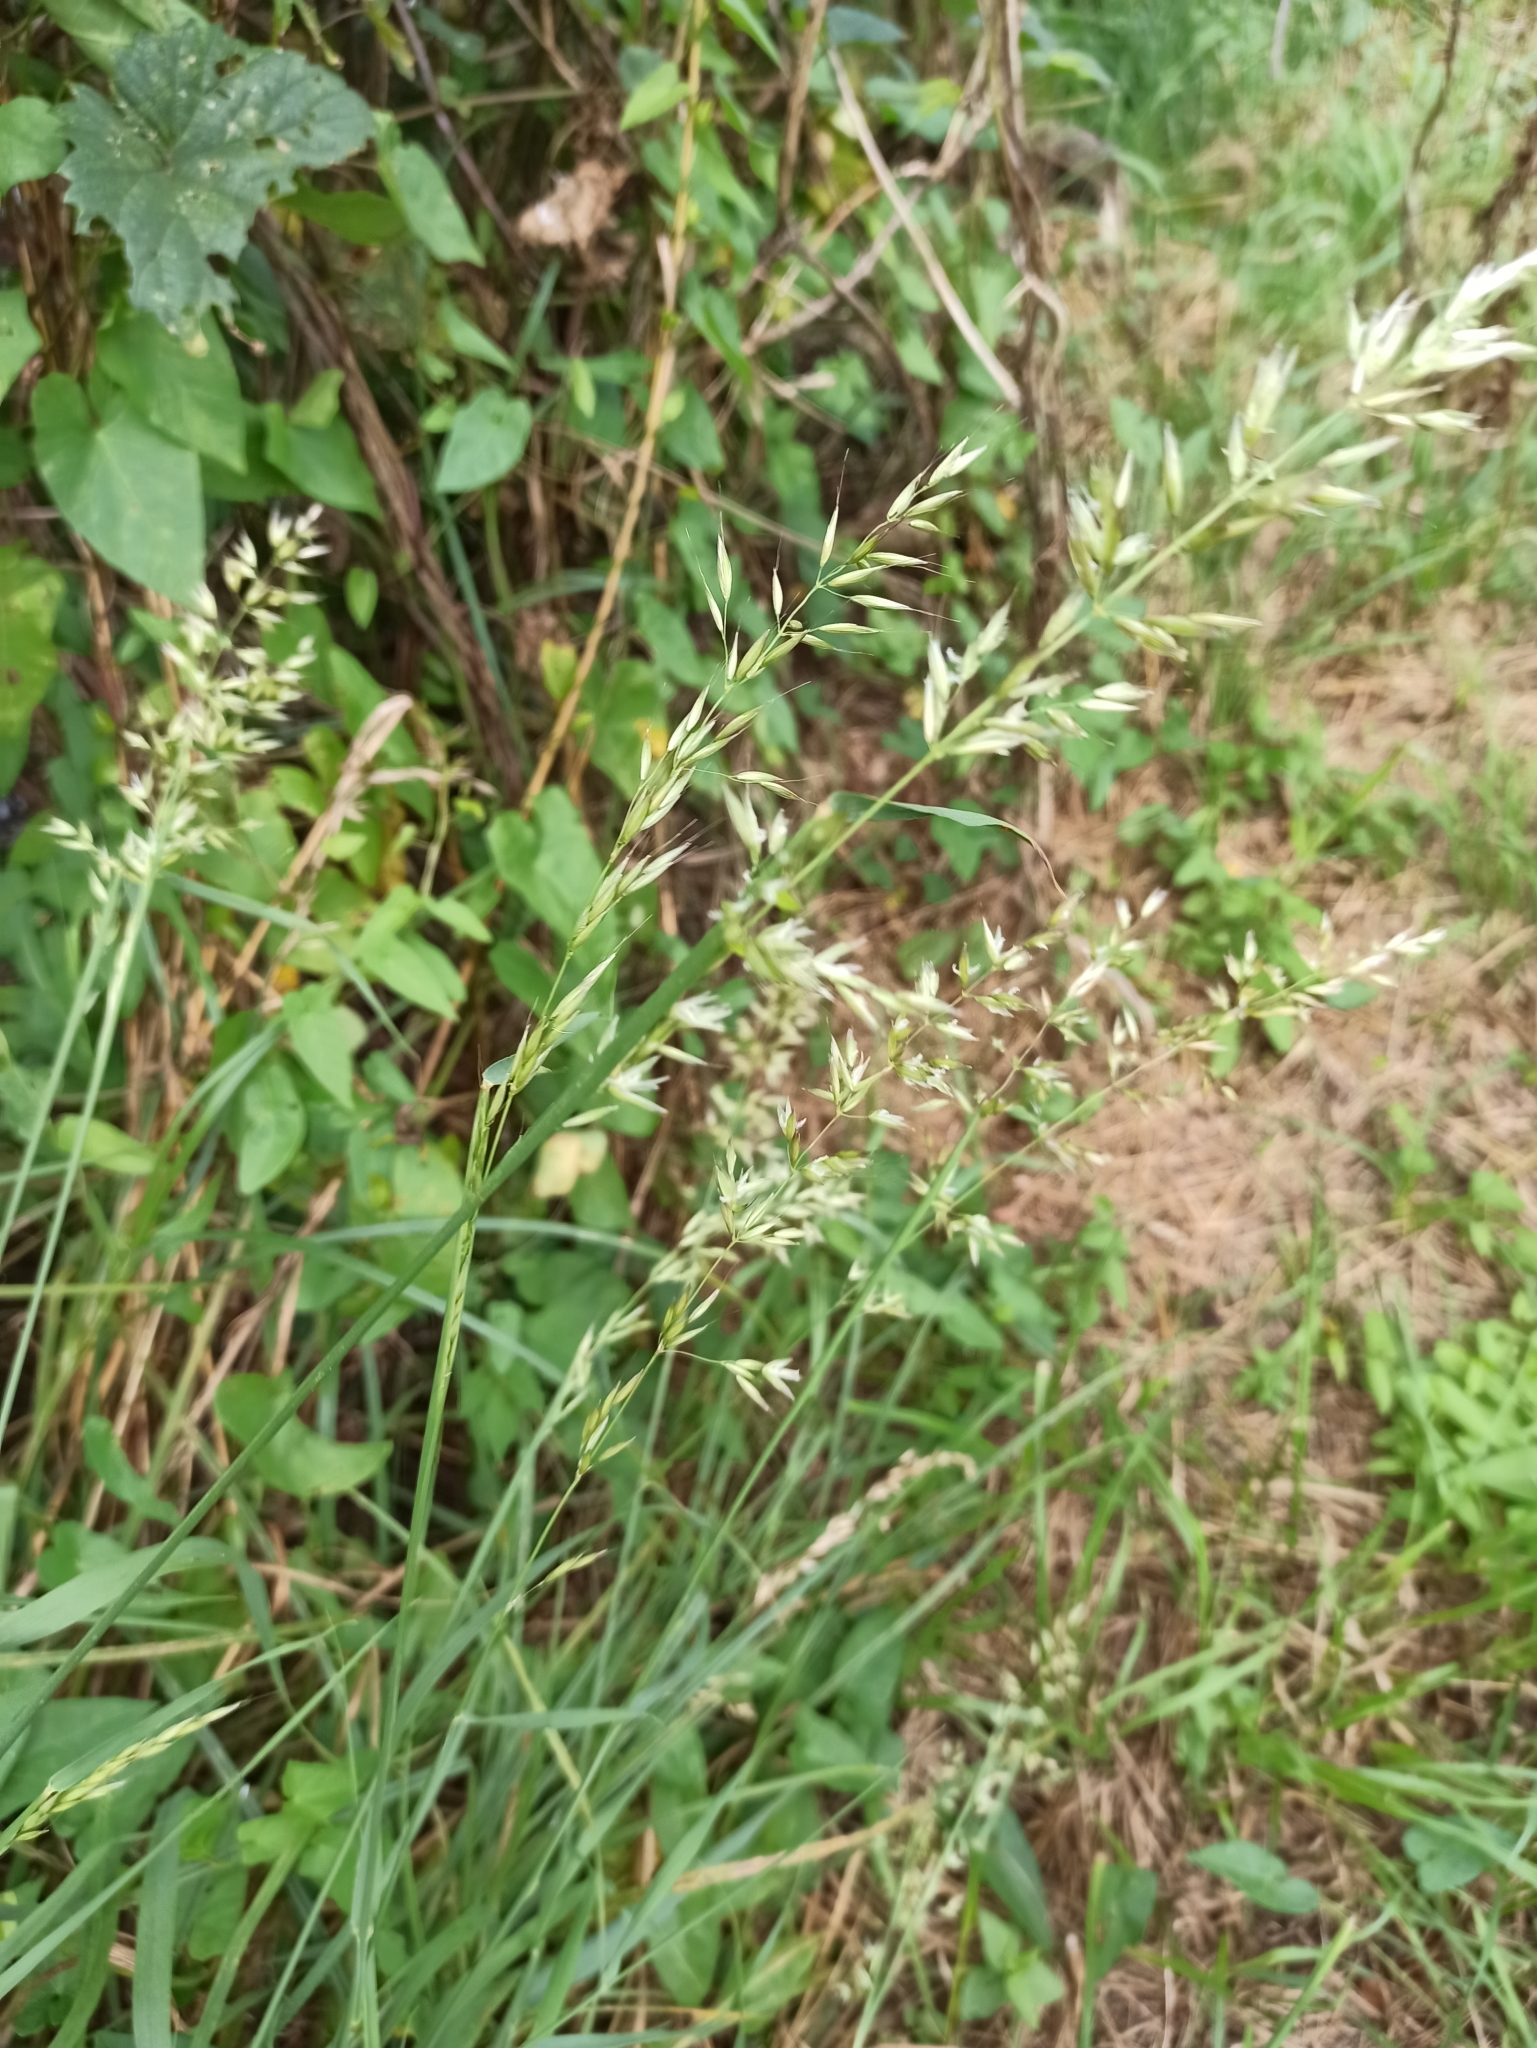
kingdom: Plantae
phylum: Tracheophyta
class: Liliopsida
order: Poales
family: Poaceae
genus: Arrhenatherum
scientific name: Arrhenatherum elatius
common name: Tall oatgrass
